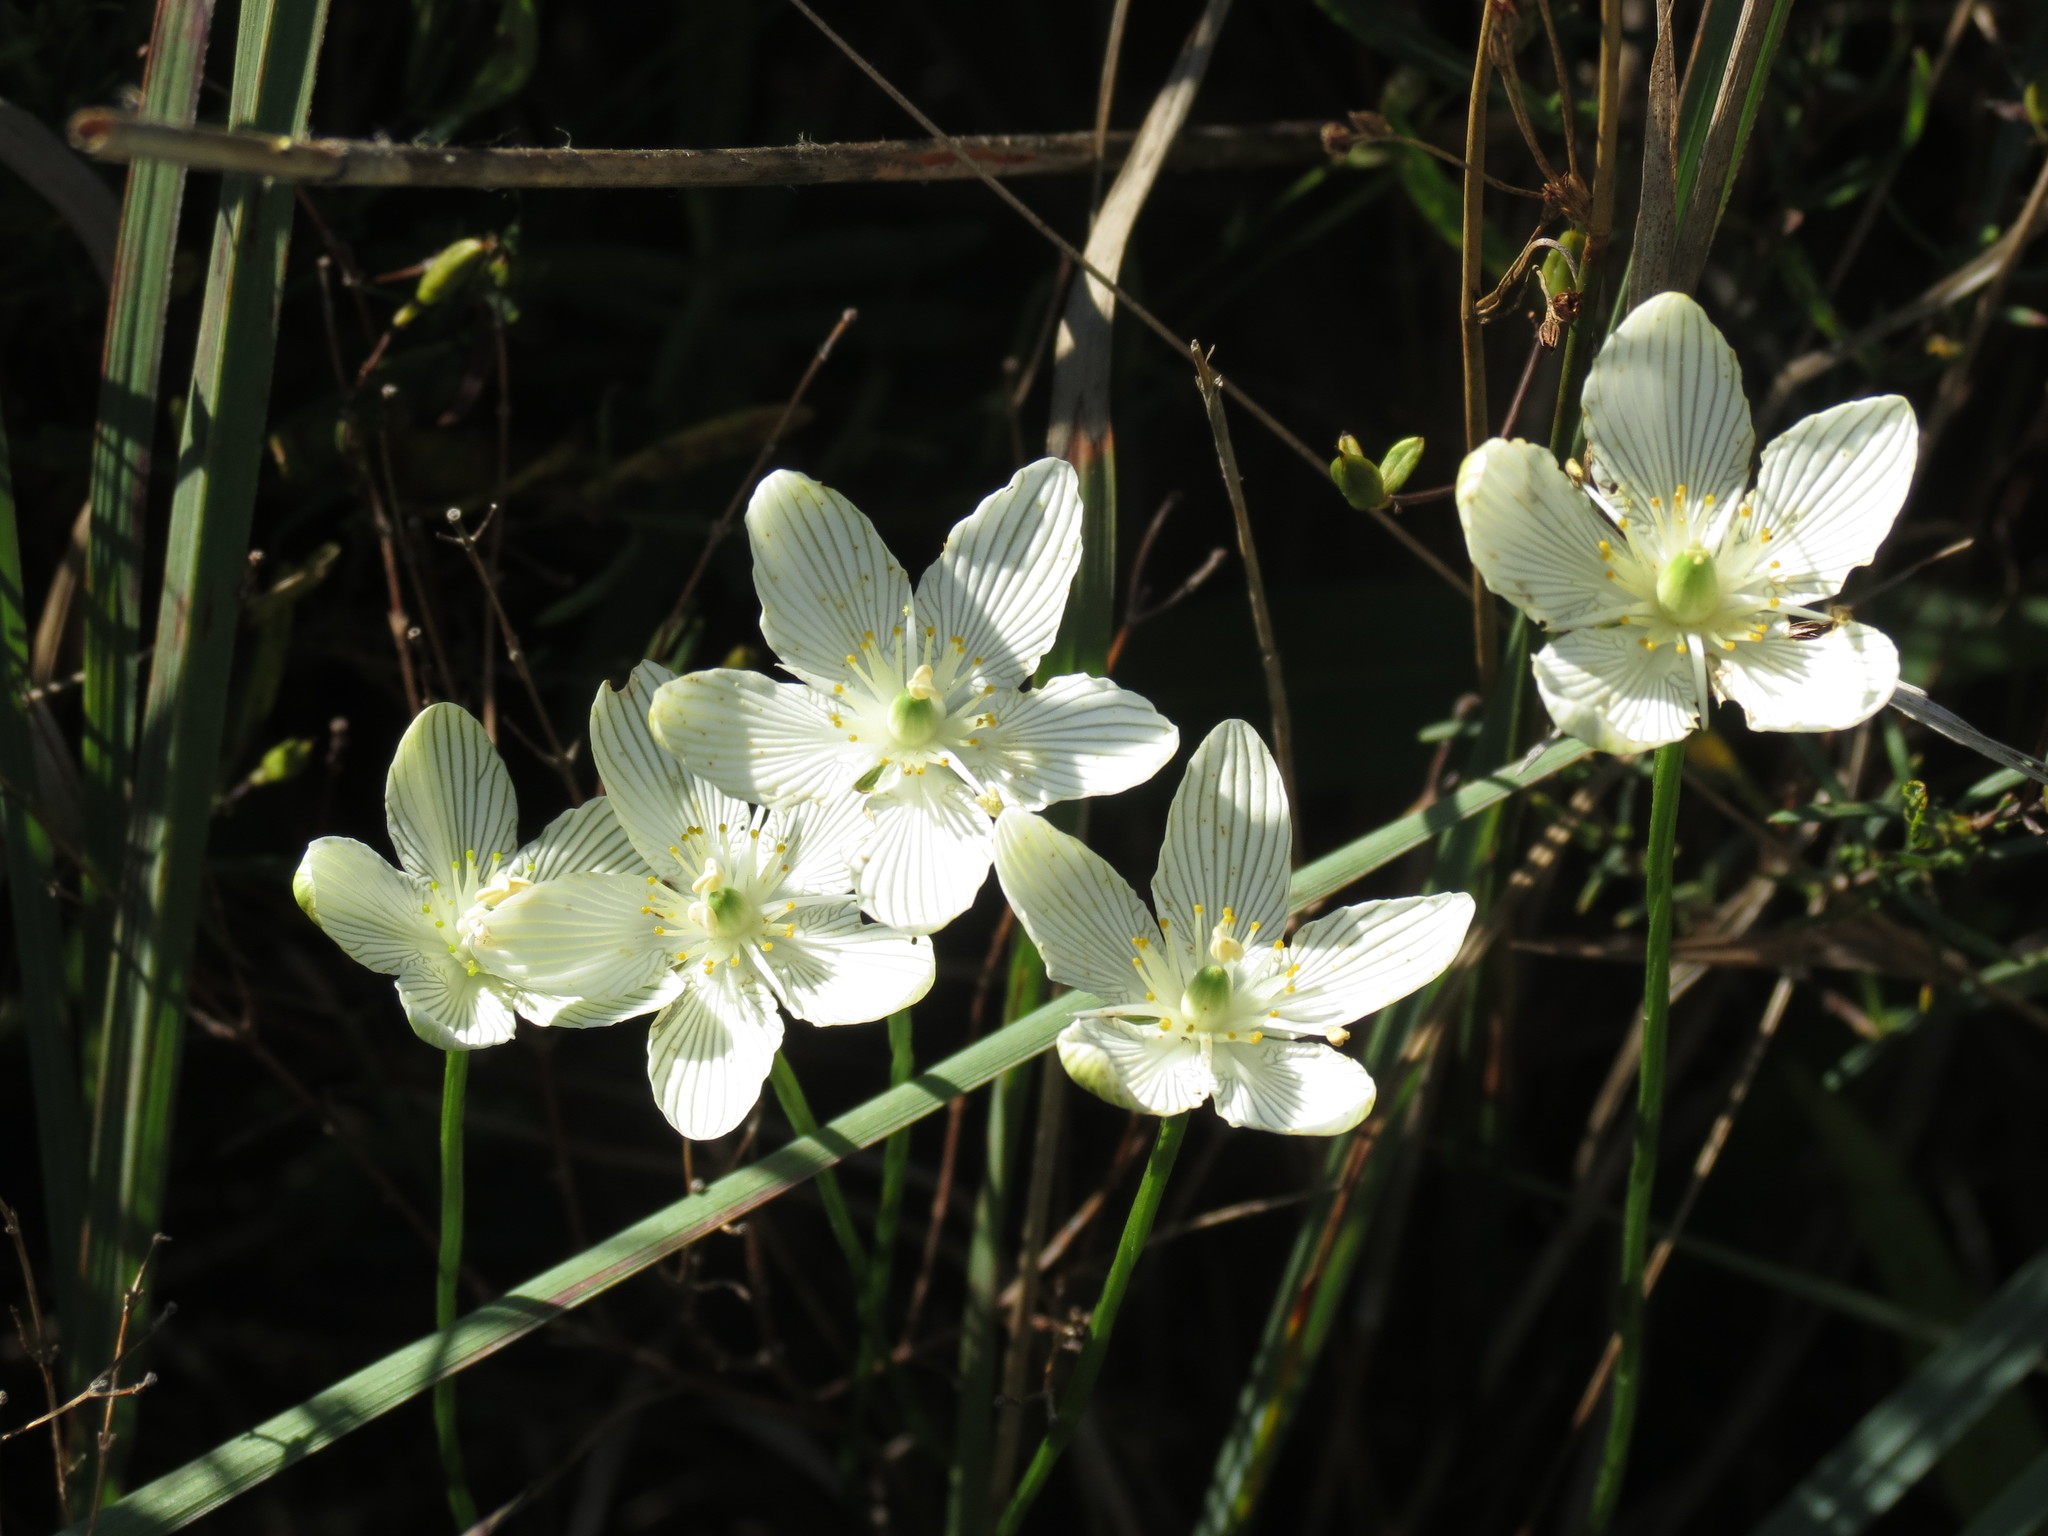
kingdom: Plantae
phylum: Tracheophyta
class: Magnoliopsida
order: Celastrales
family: Parnassiaceae
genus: Parnassia
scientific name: Parnassia glauca
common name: American grass-of-parnassus
